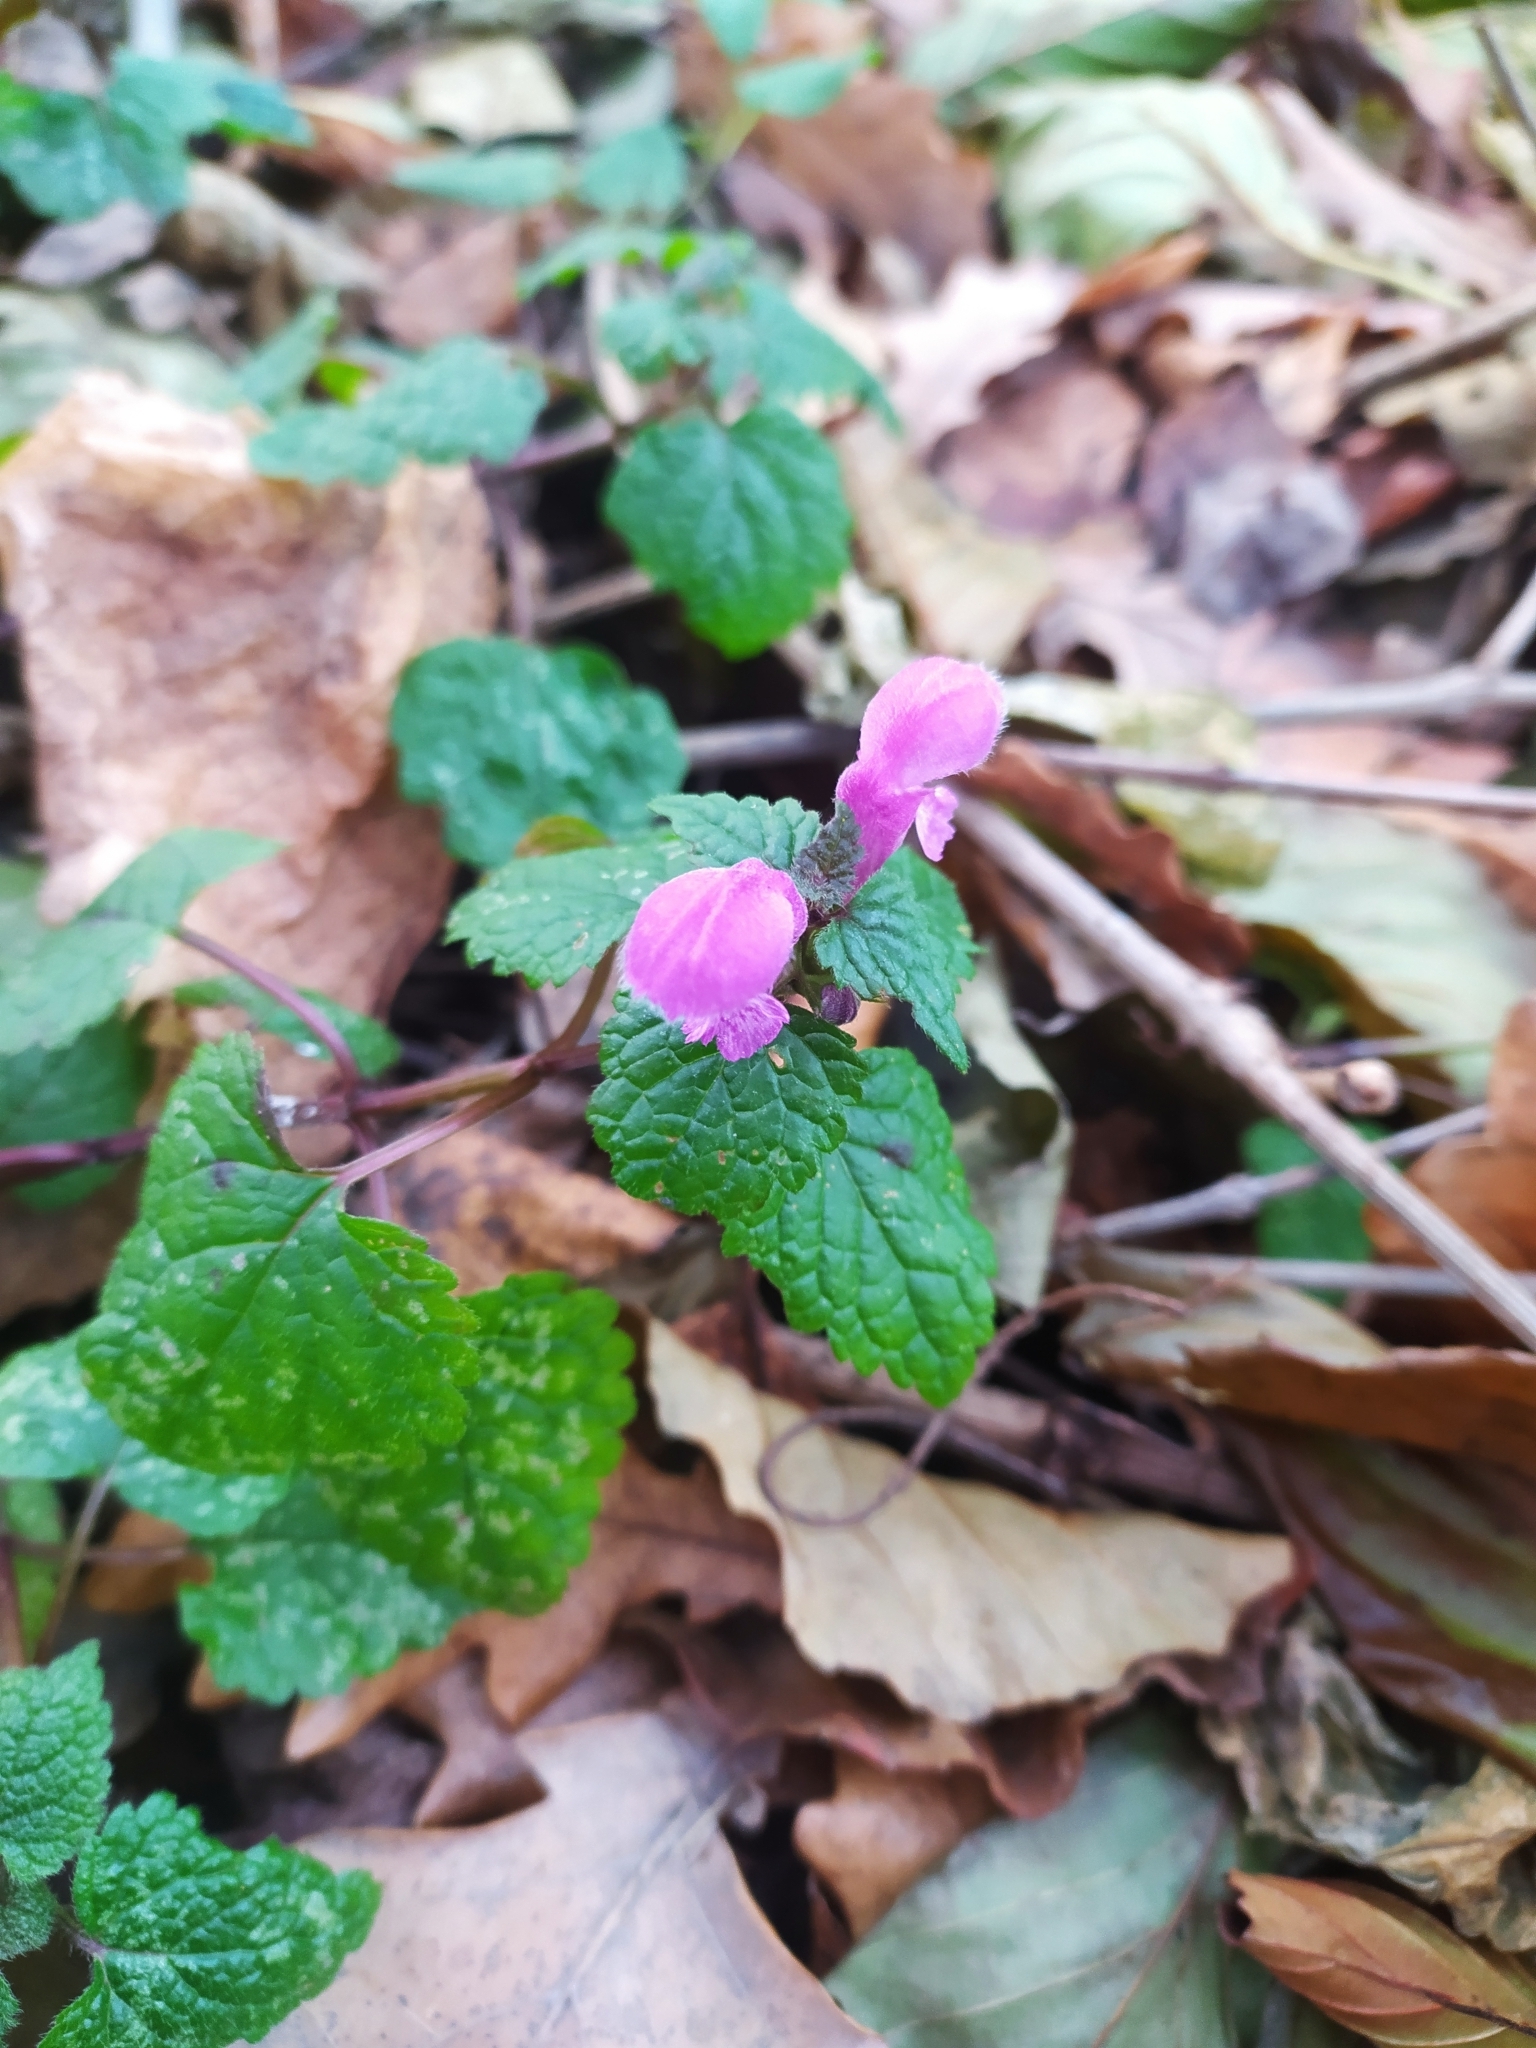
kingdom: Plantae
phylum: Tracheophyta
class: Magnoliopsida
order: Lamiales
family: Lamiaceae
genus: Lamium
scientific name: Lamium maculatum
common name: Spotted dead-nettle
